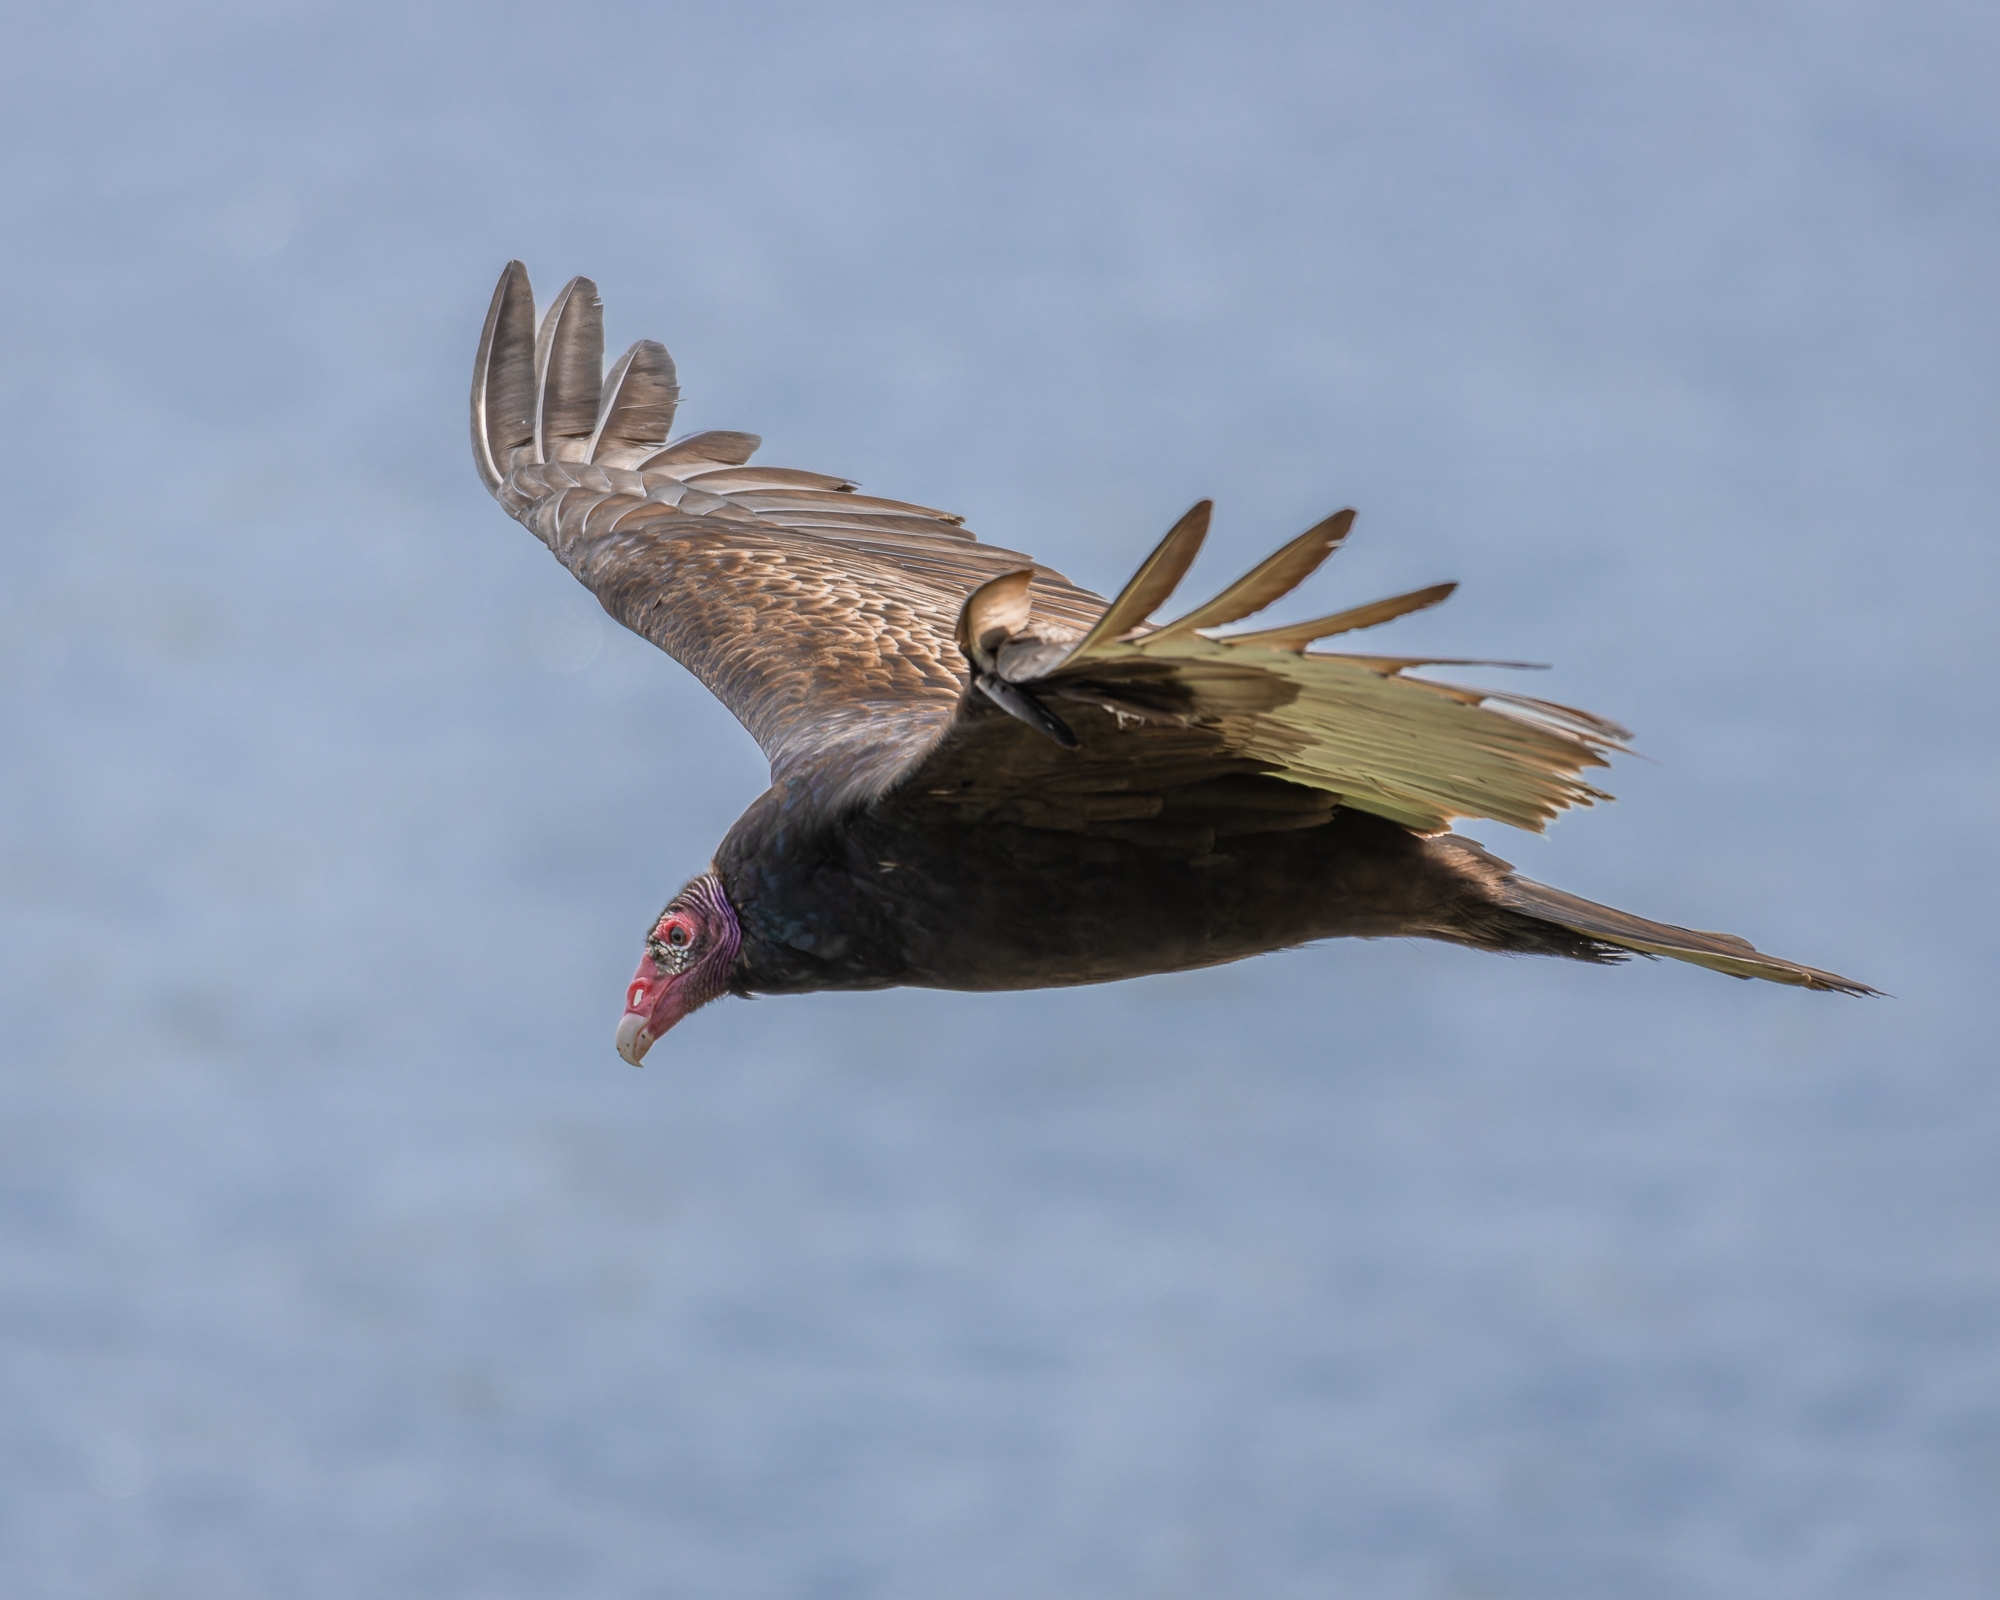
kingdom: Animalia
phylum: Chordata
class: Aves
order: Accipitriformes
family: Cathartidae
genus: Cathartes
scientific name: Cathartes aura
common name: Turkey vulture
